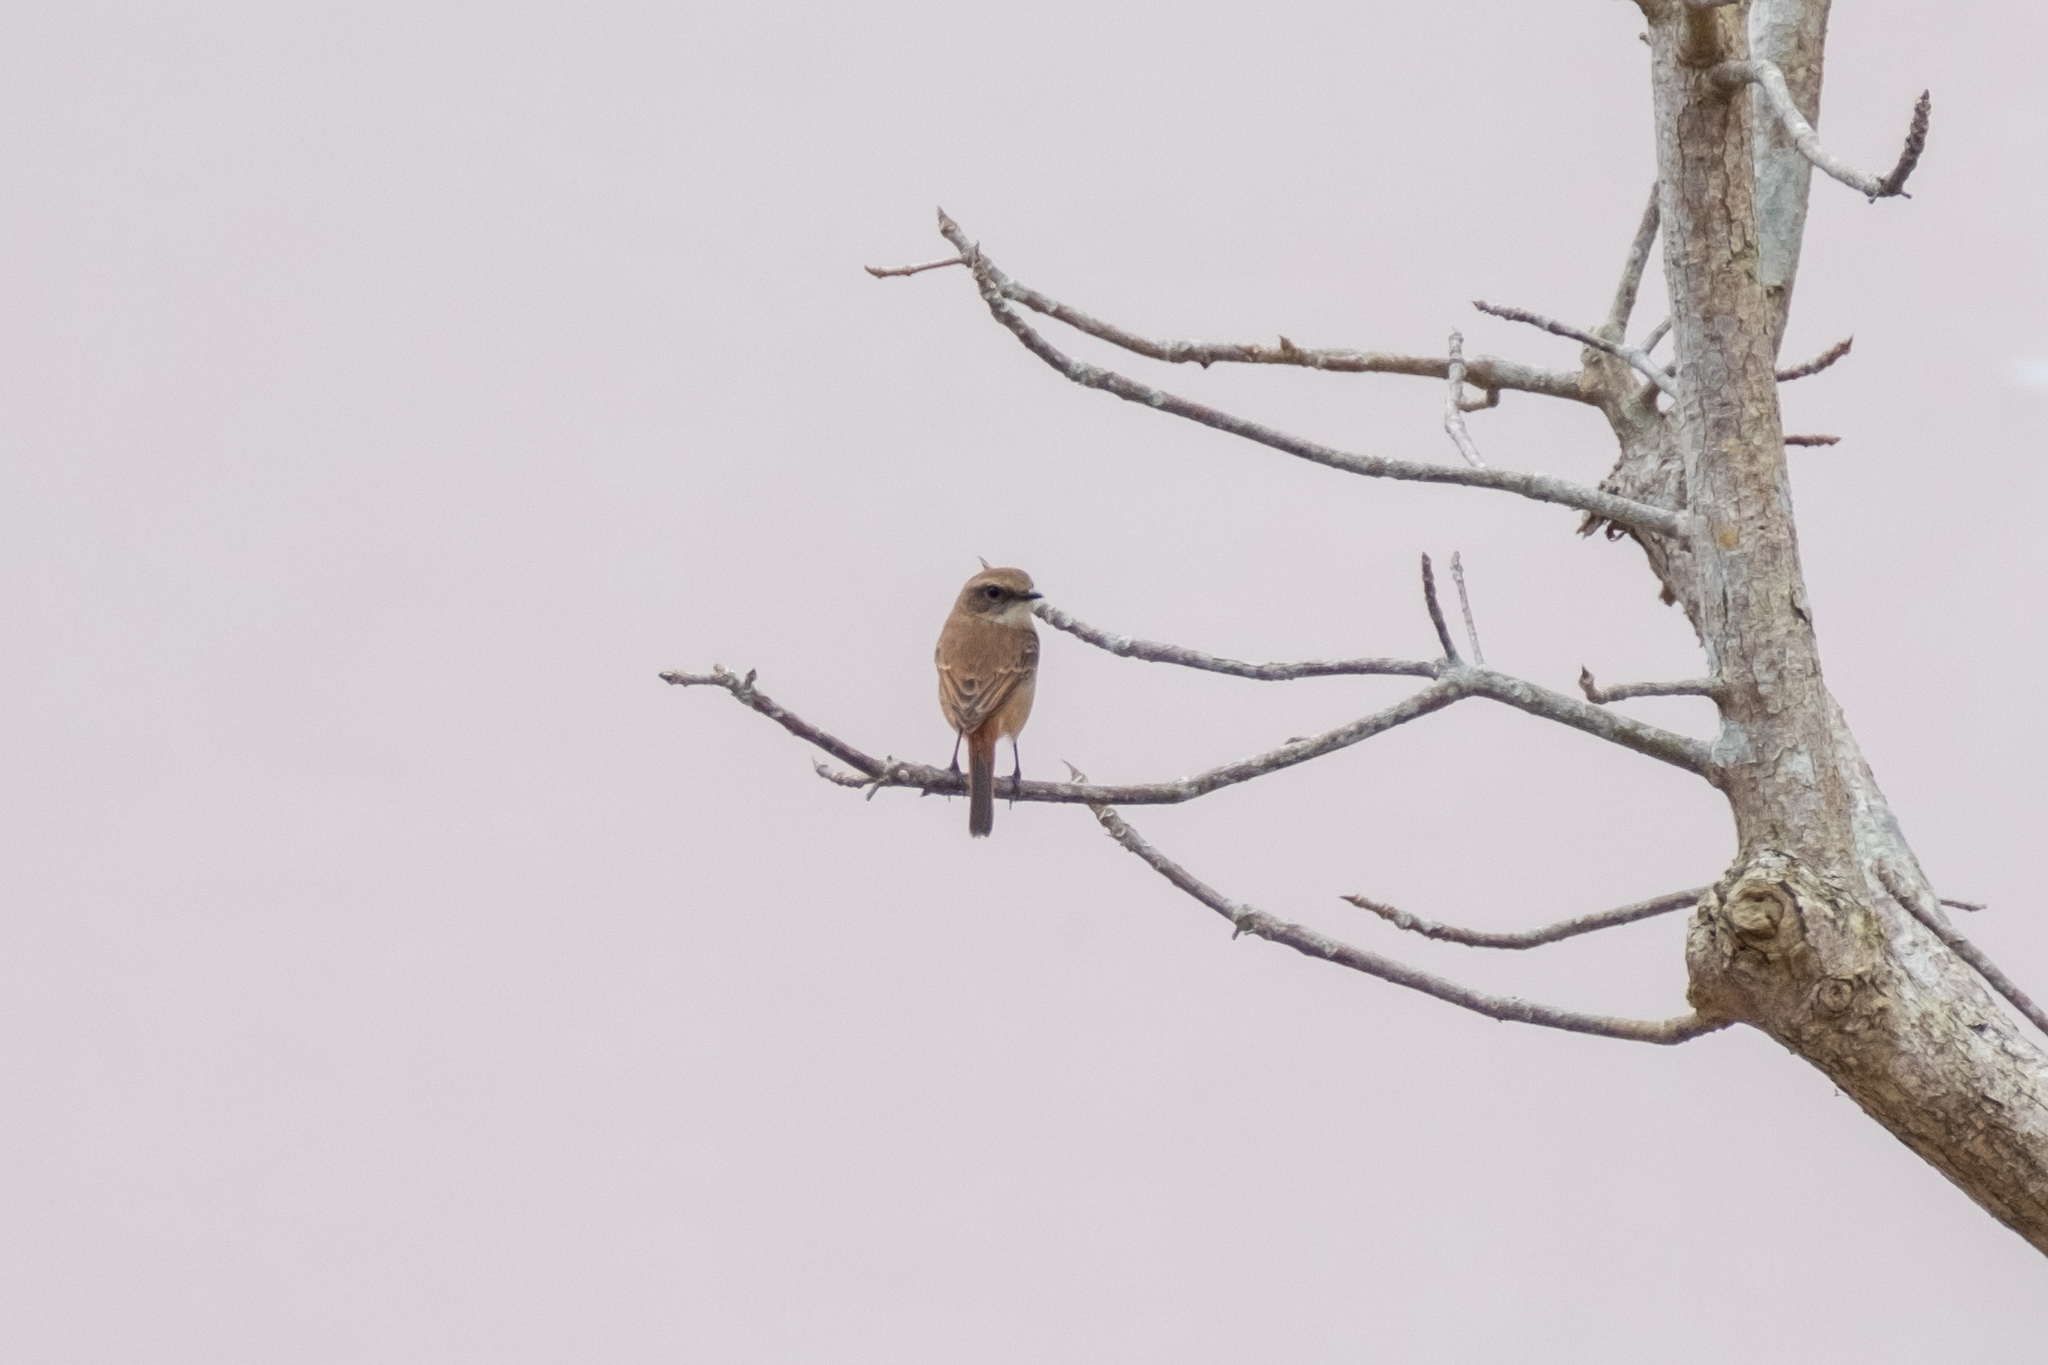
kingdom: Animalia
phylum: Chordata
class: Aves
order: Passeriformes
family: Muscicapidae
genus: Saxicola
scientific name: Saxicola ferreus
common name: Grey bush chat
